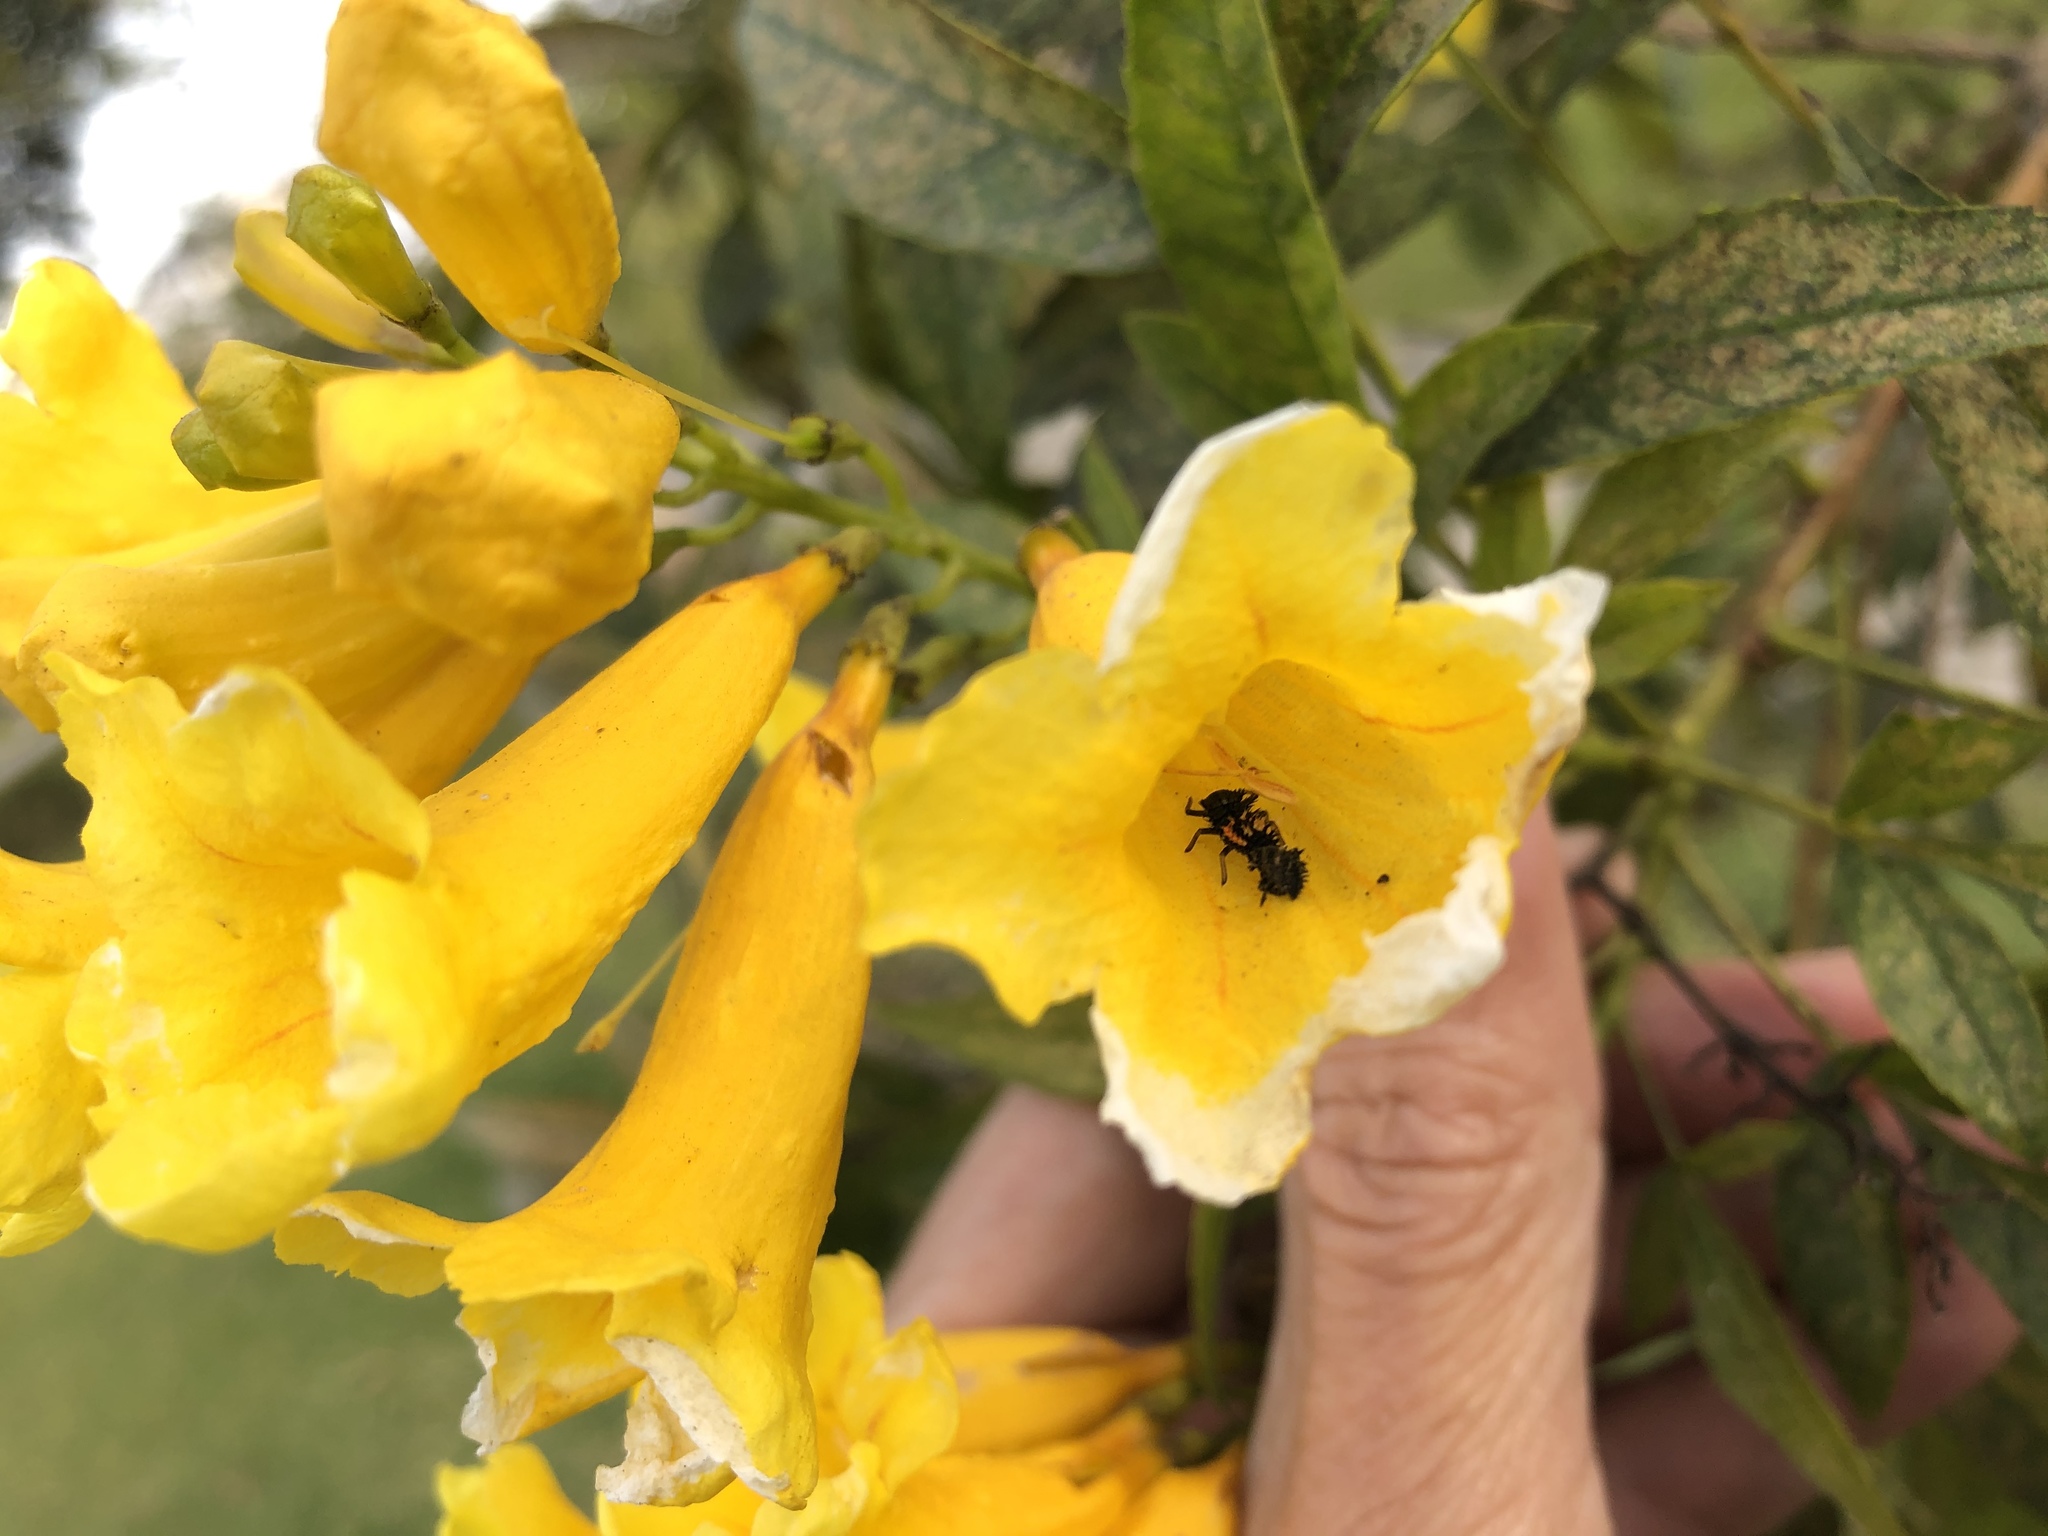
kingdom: Animalia
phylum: Arthropoda
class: Insecta
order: Coleoptera
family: Coccinellidae
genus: Harmonia
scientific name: Harmonia axyridis
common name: Harlequin ladybird
